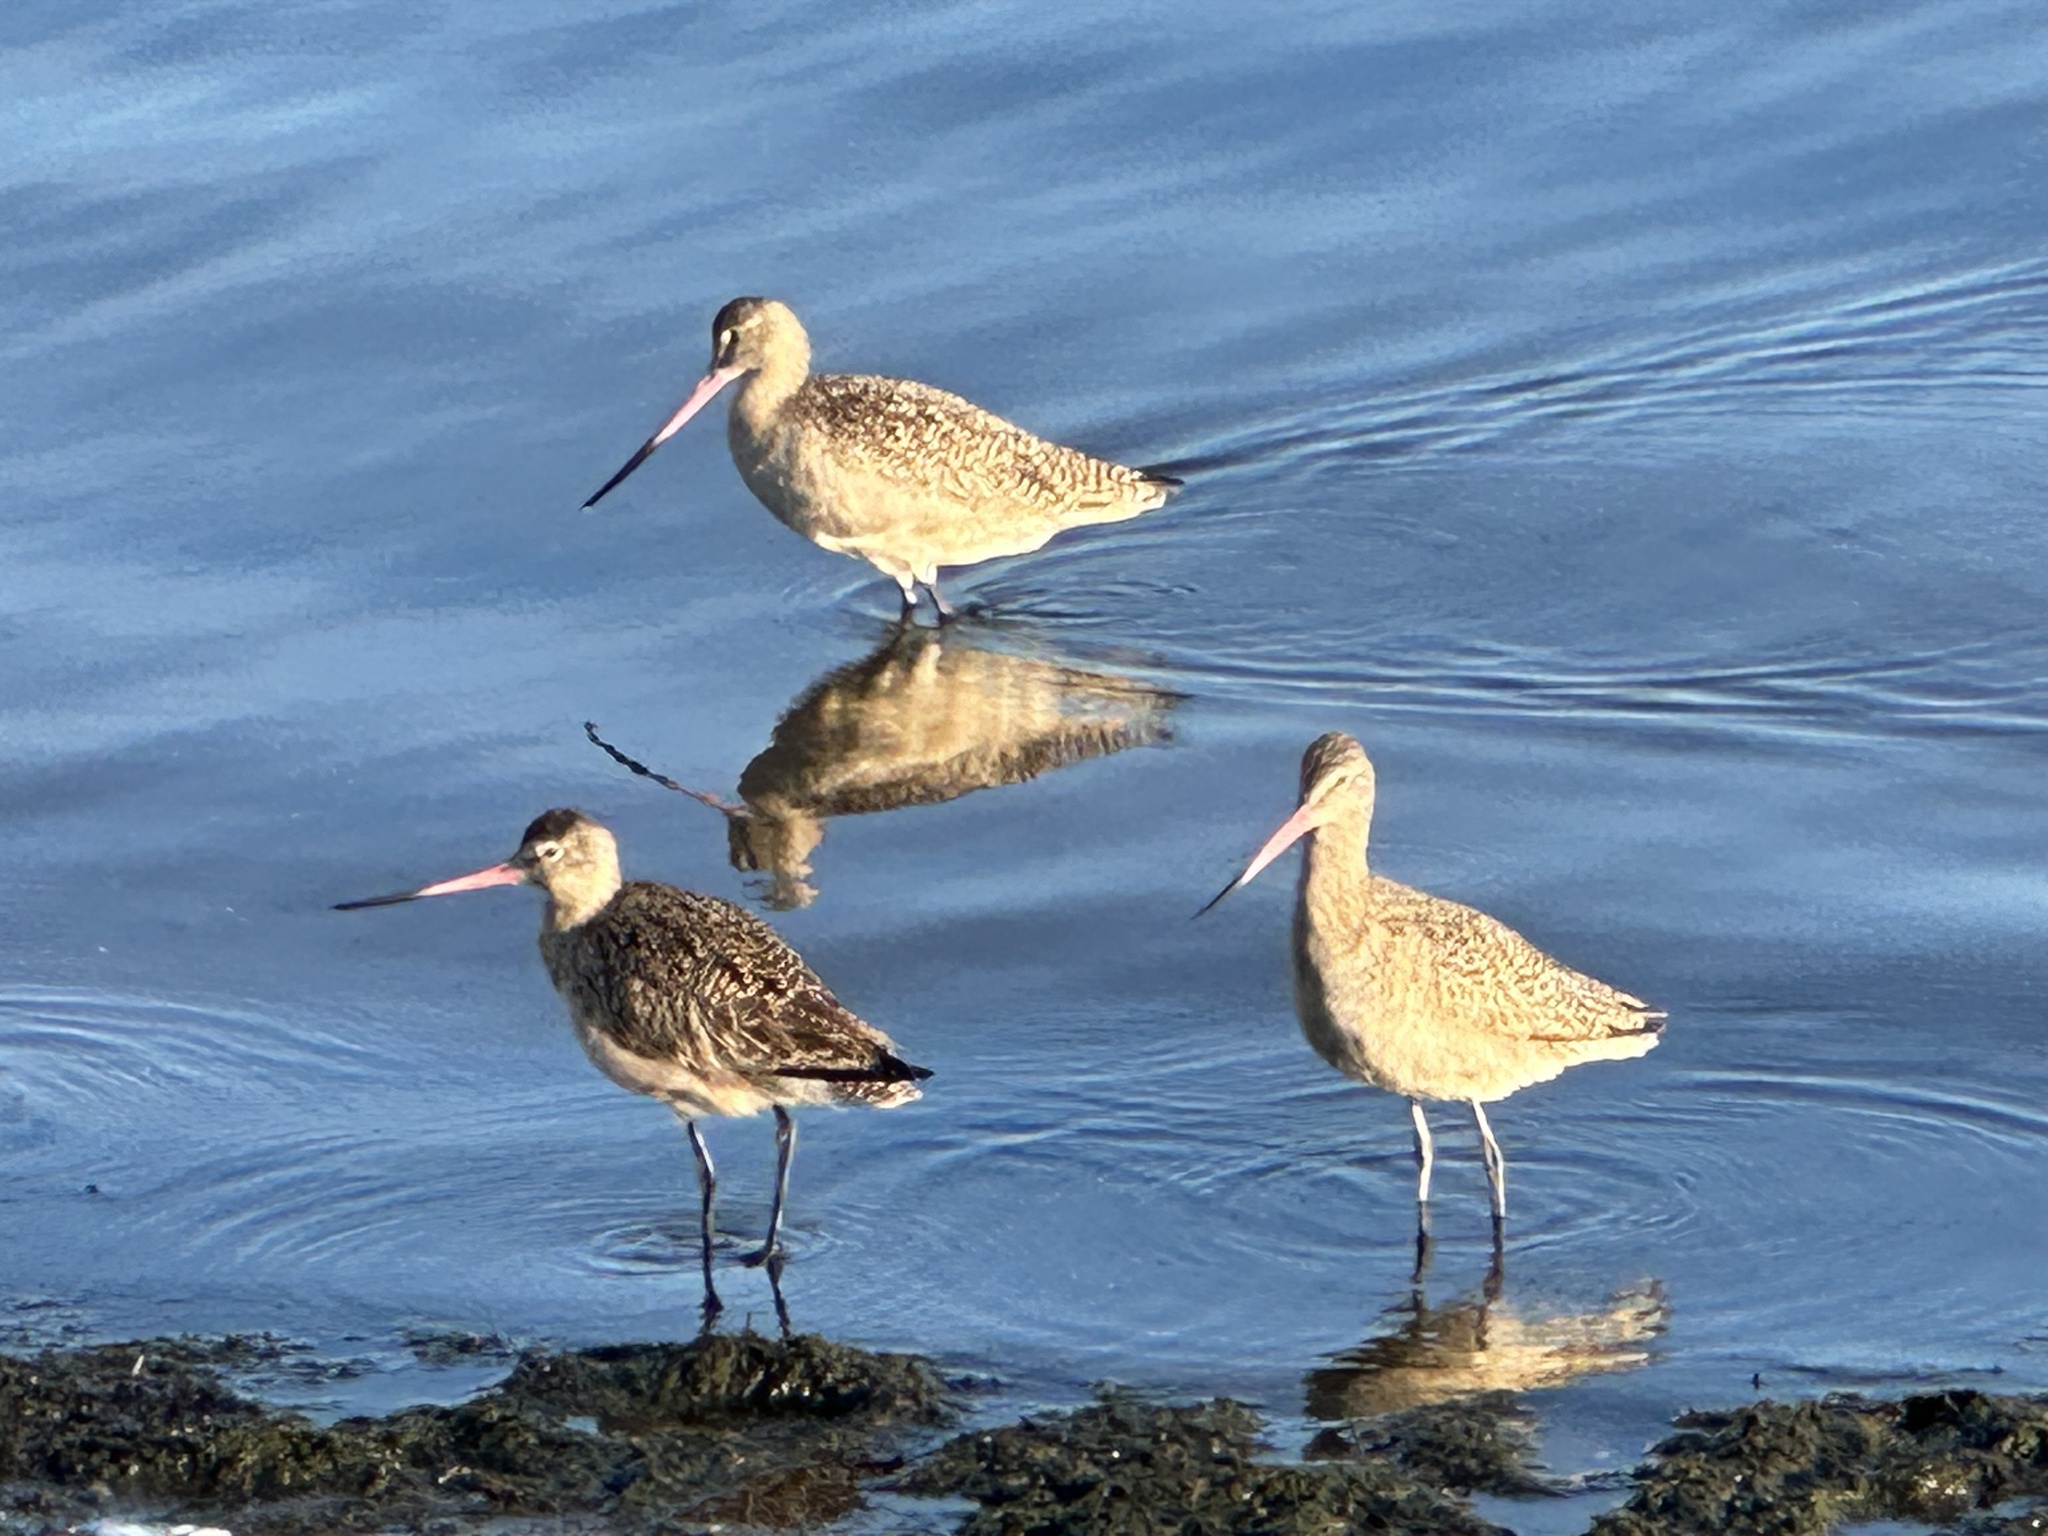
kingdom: Animalia
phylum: Chordata
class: Aves
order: Charadriiformes
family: Scolopacidae
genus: Limosa
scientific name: Limosa fedoa
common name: Marbled godwit
